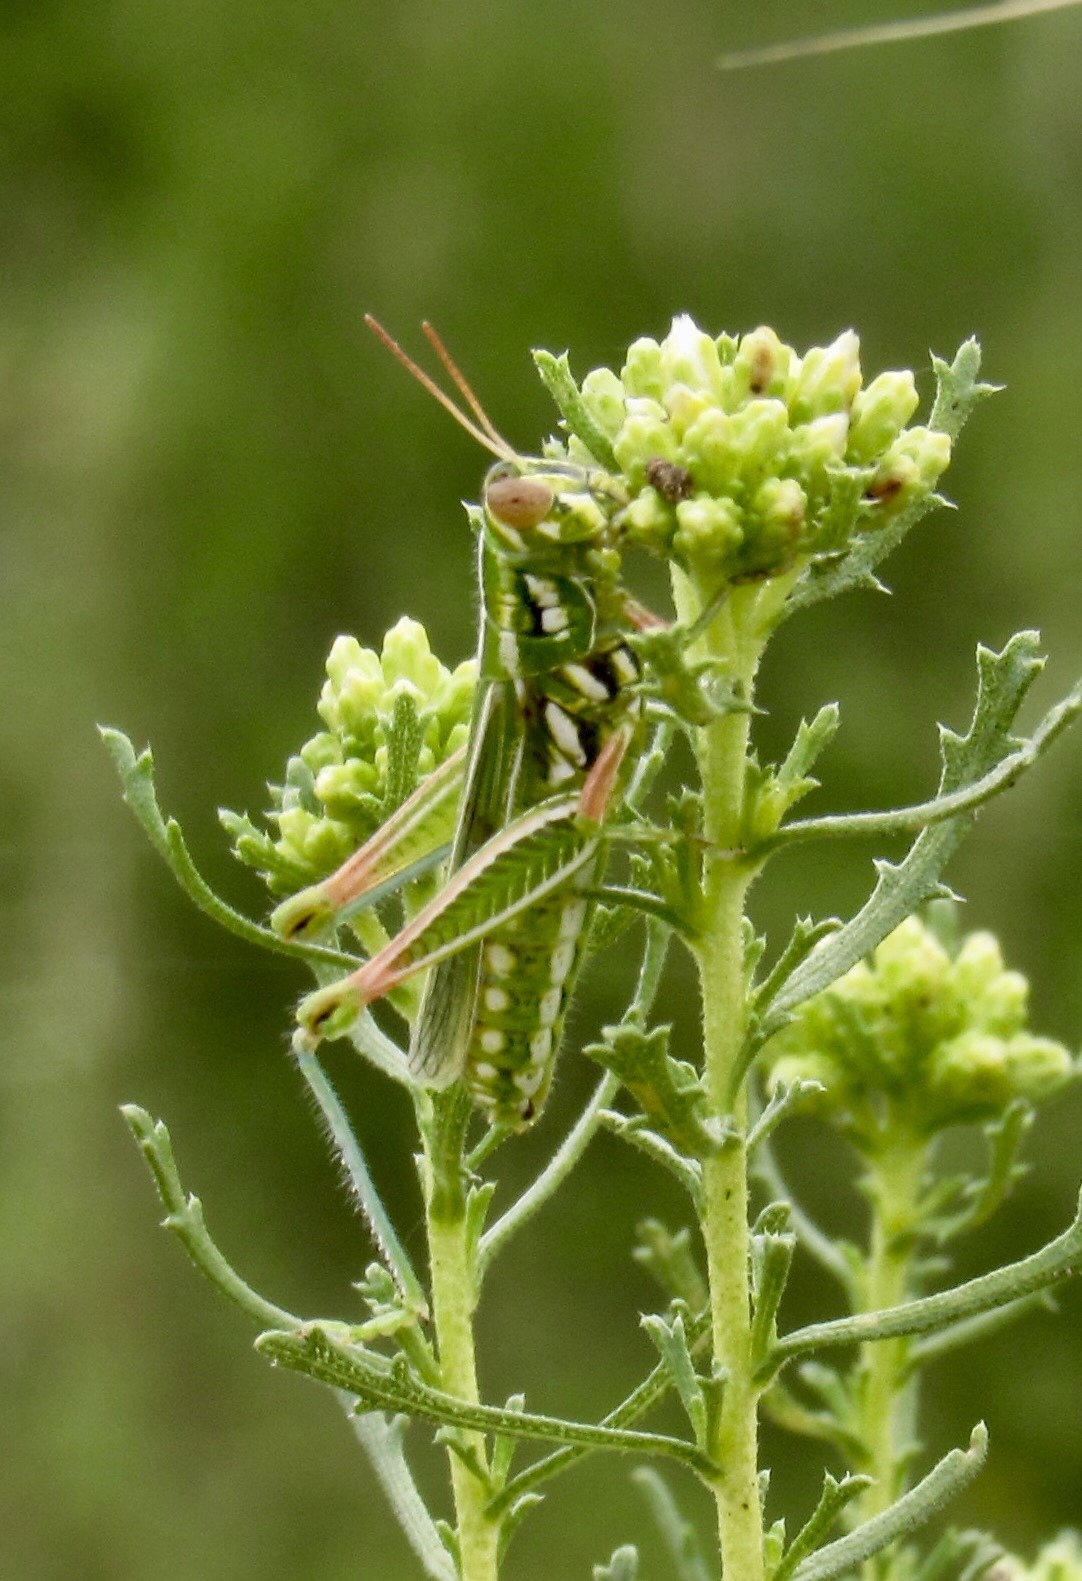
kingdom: Animalia
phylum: Arthropoda
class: Insecta
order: Orthoptera
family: Acrididae
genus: Hesperotettix
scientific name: Hesperotettix viridis
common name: Meadow purple-striped grasshopper
